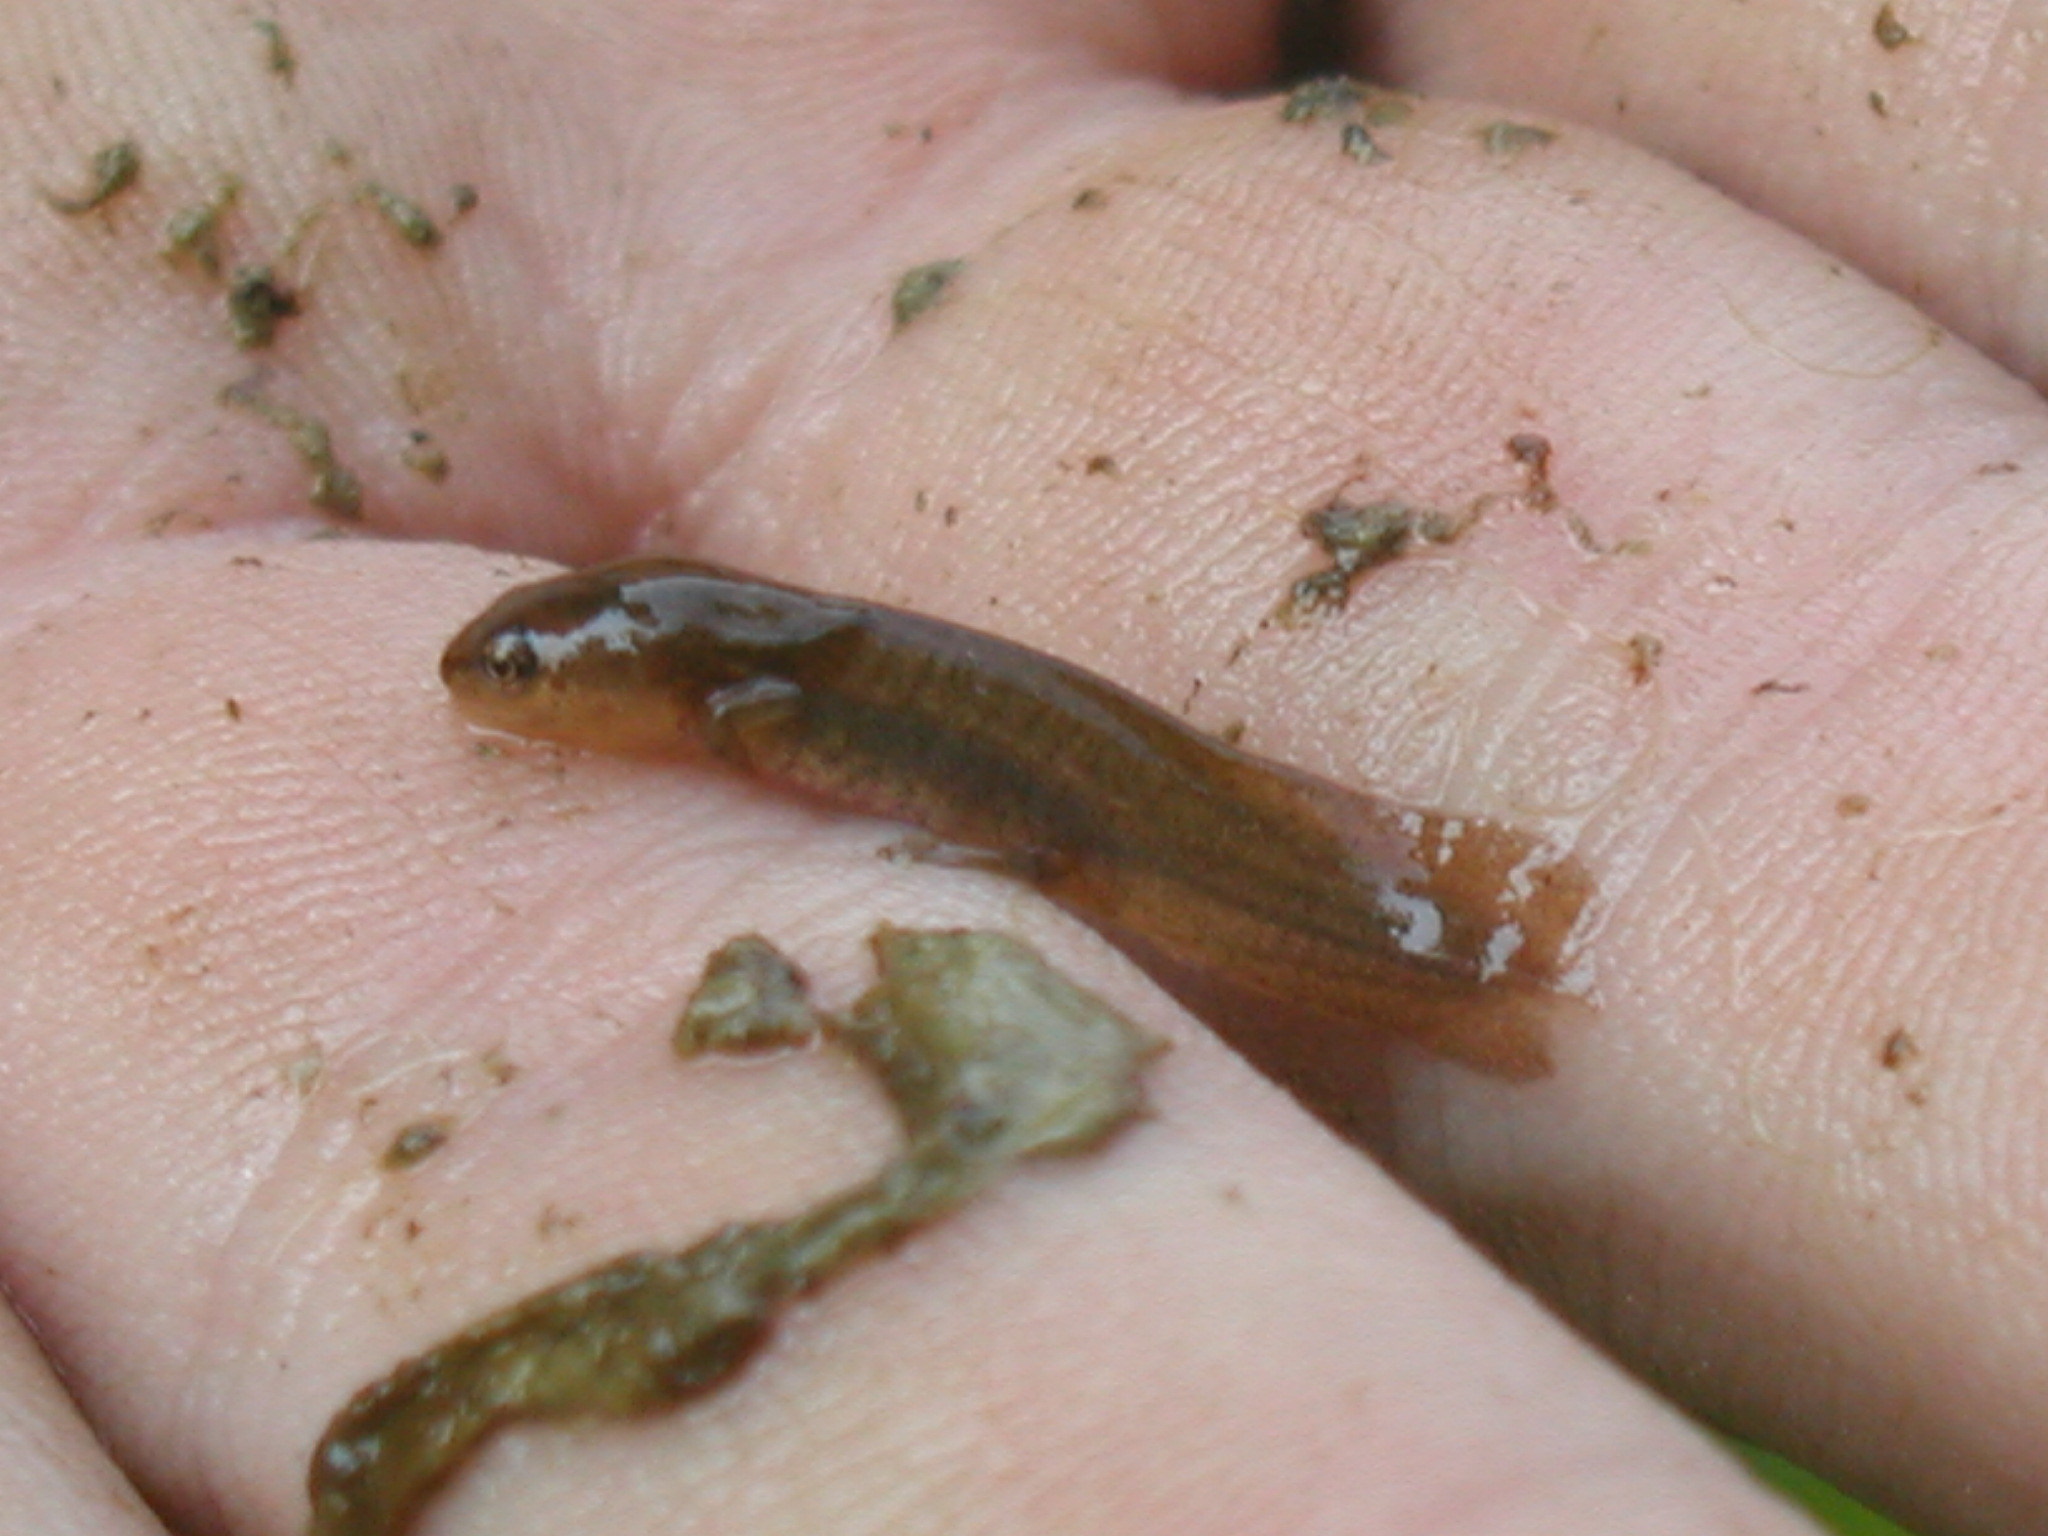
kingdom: Animalia
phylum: Chordata
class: Amphibia
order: Caudata
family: Salamandridae
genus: Lissotriton
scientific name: Lissotriton vulgaris
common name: Smooth newt
